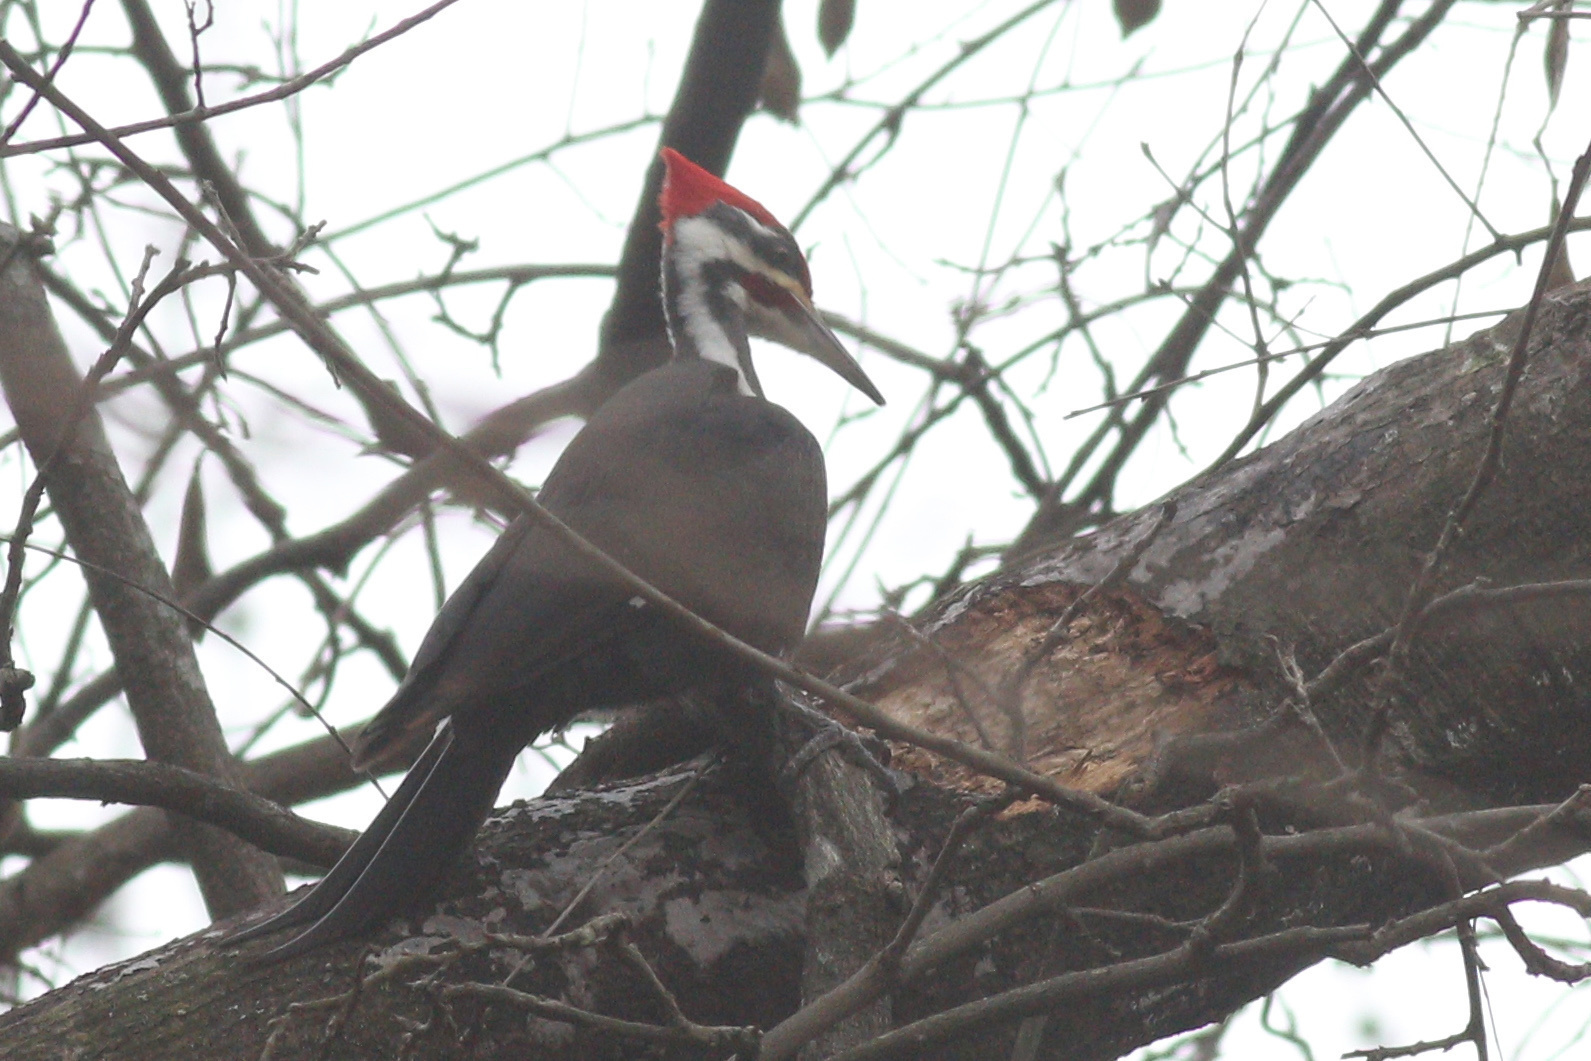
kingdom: Animalia
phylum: Chordata
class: Aves
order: Piciformes
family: Picidae
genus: Dryocopus
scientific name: Dryocopus pileatus
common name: Pileated woodpecker
